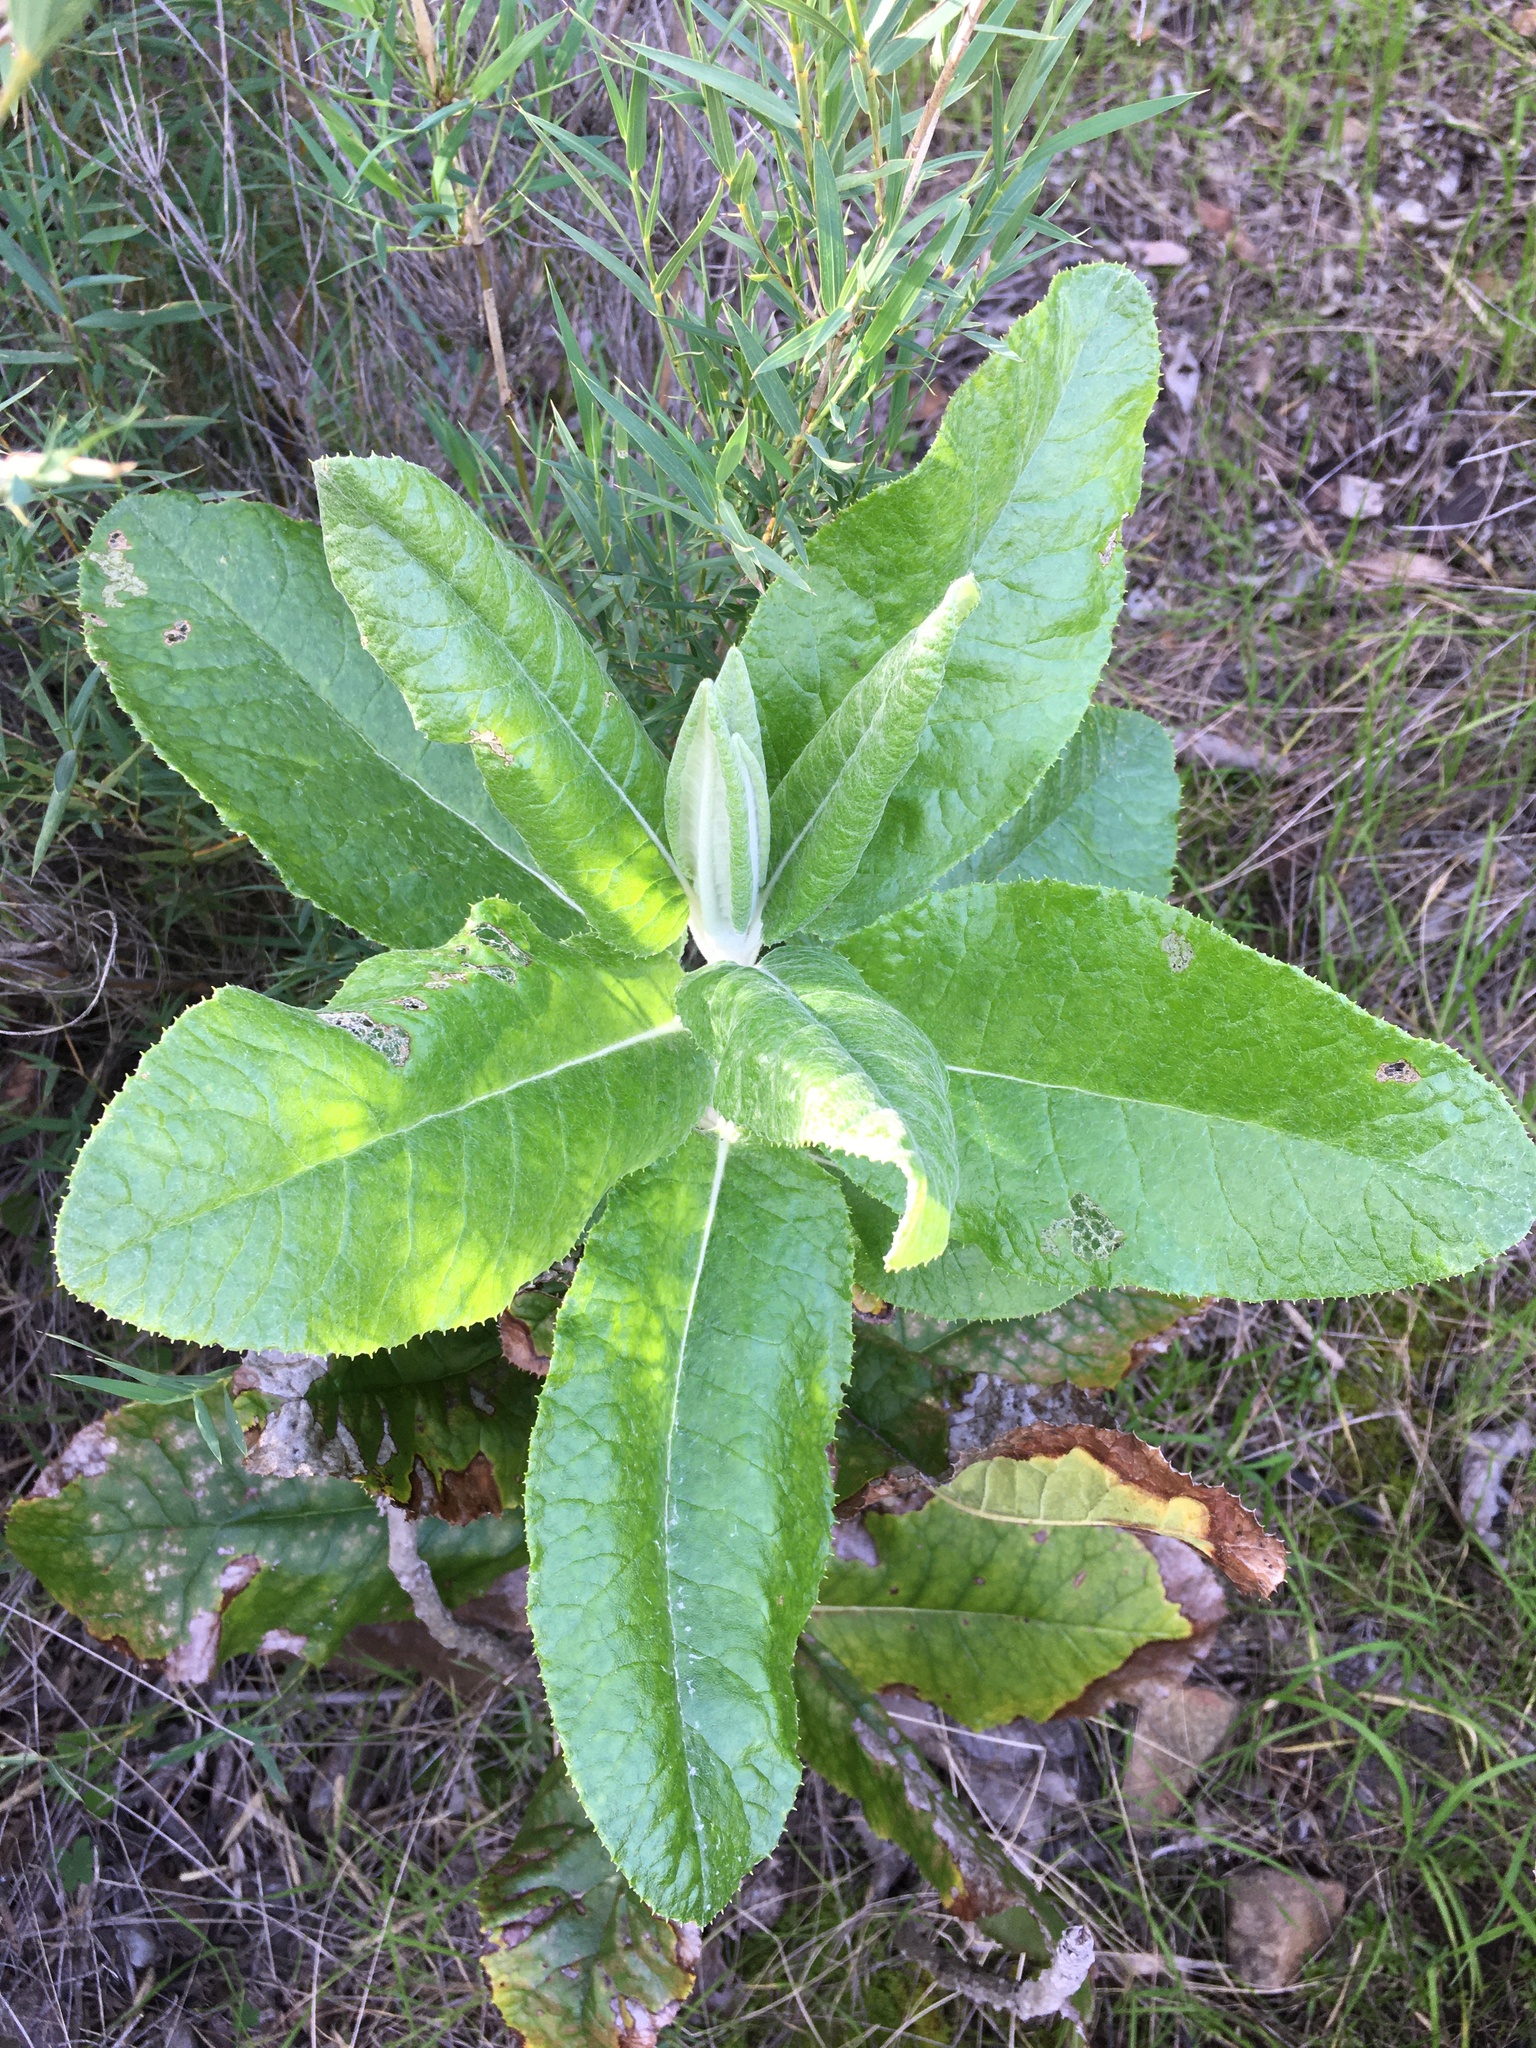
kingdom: Plantae
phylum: Tracheophyta
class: Magnoliopsida
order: Asterales
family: Asteraceae
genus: Acrisione
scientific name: Acrisione denticulata
